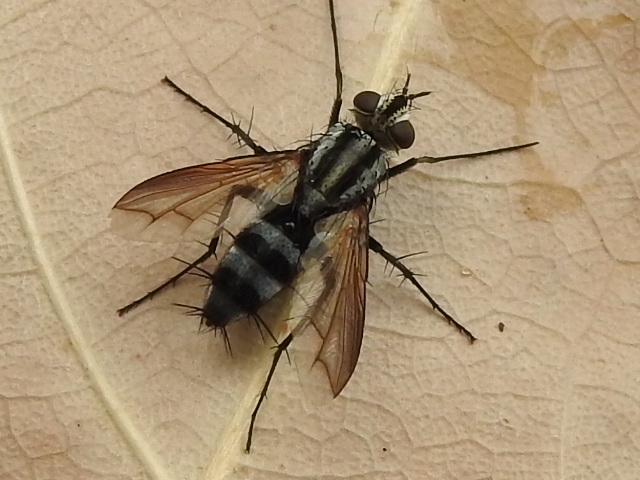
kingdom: Animalia
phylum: Arthropoda
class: Insecta
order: Diptera
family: Tachinidae
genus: Vanderwulpia
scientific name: Vanderwulpia sequens
